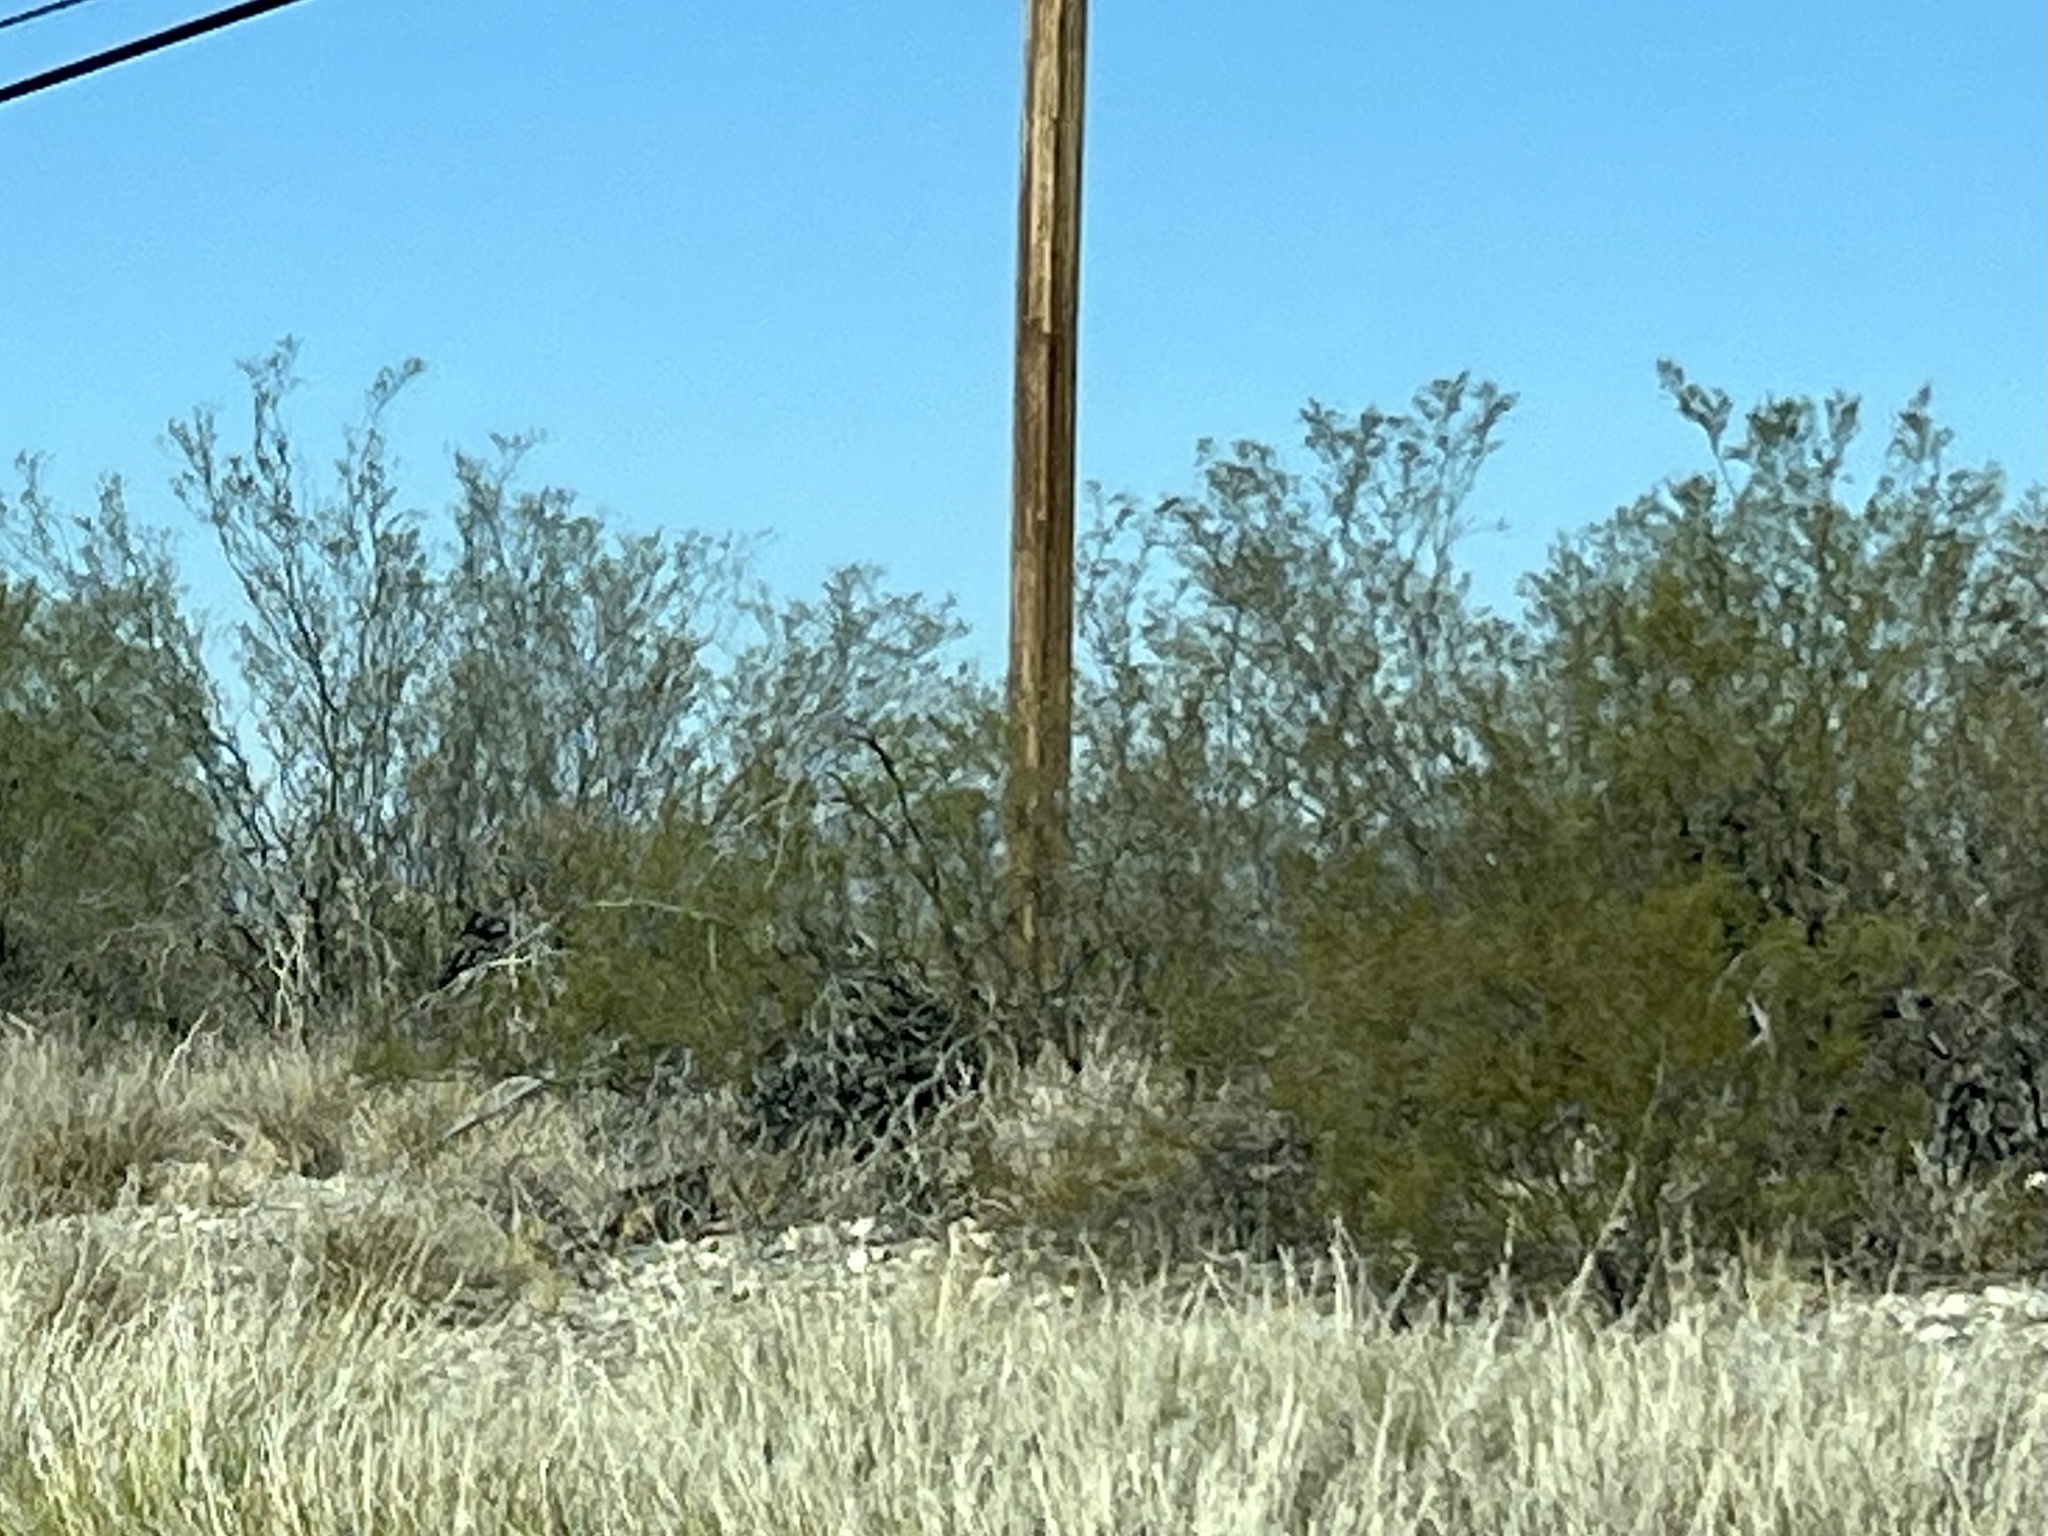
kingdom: Plantae
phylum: Tracheophyta
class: Magnoliopsida
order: Zygophyllales
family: Zygophyllaceae
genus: Larrea
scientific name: Larrea tridentata
